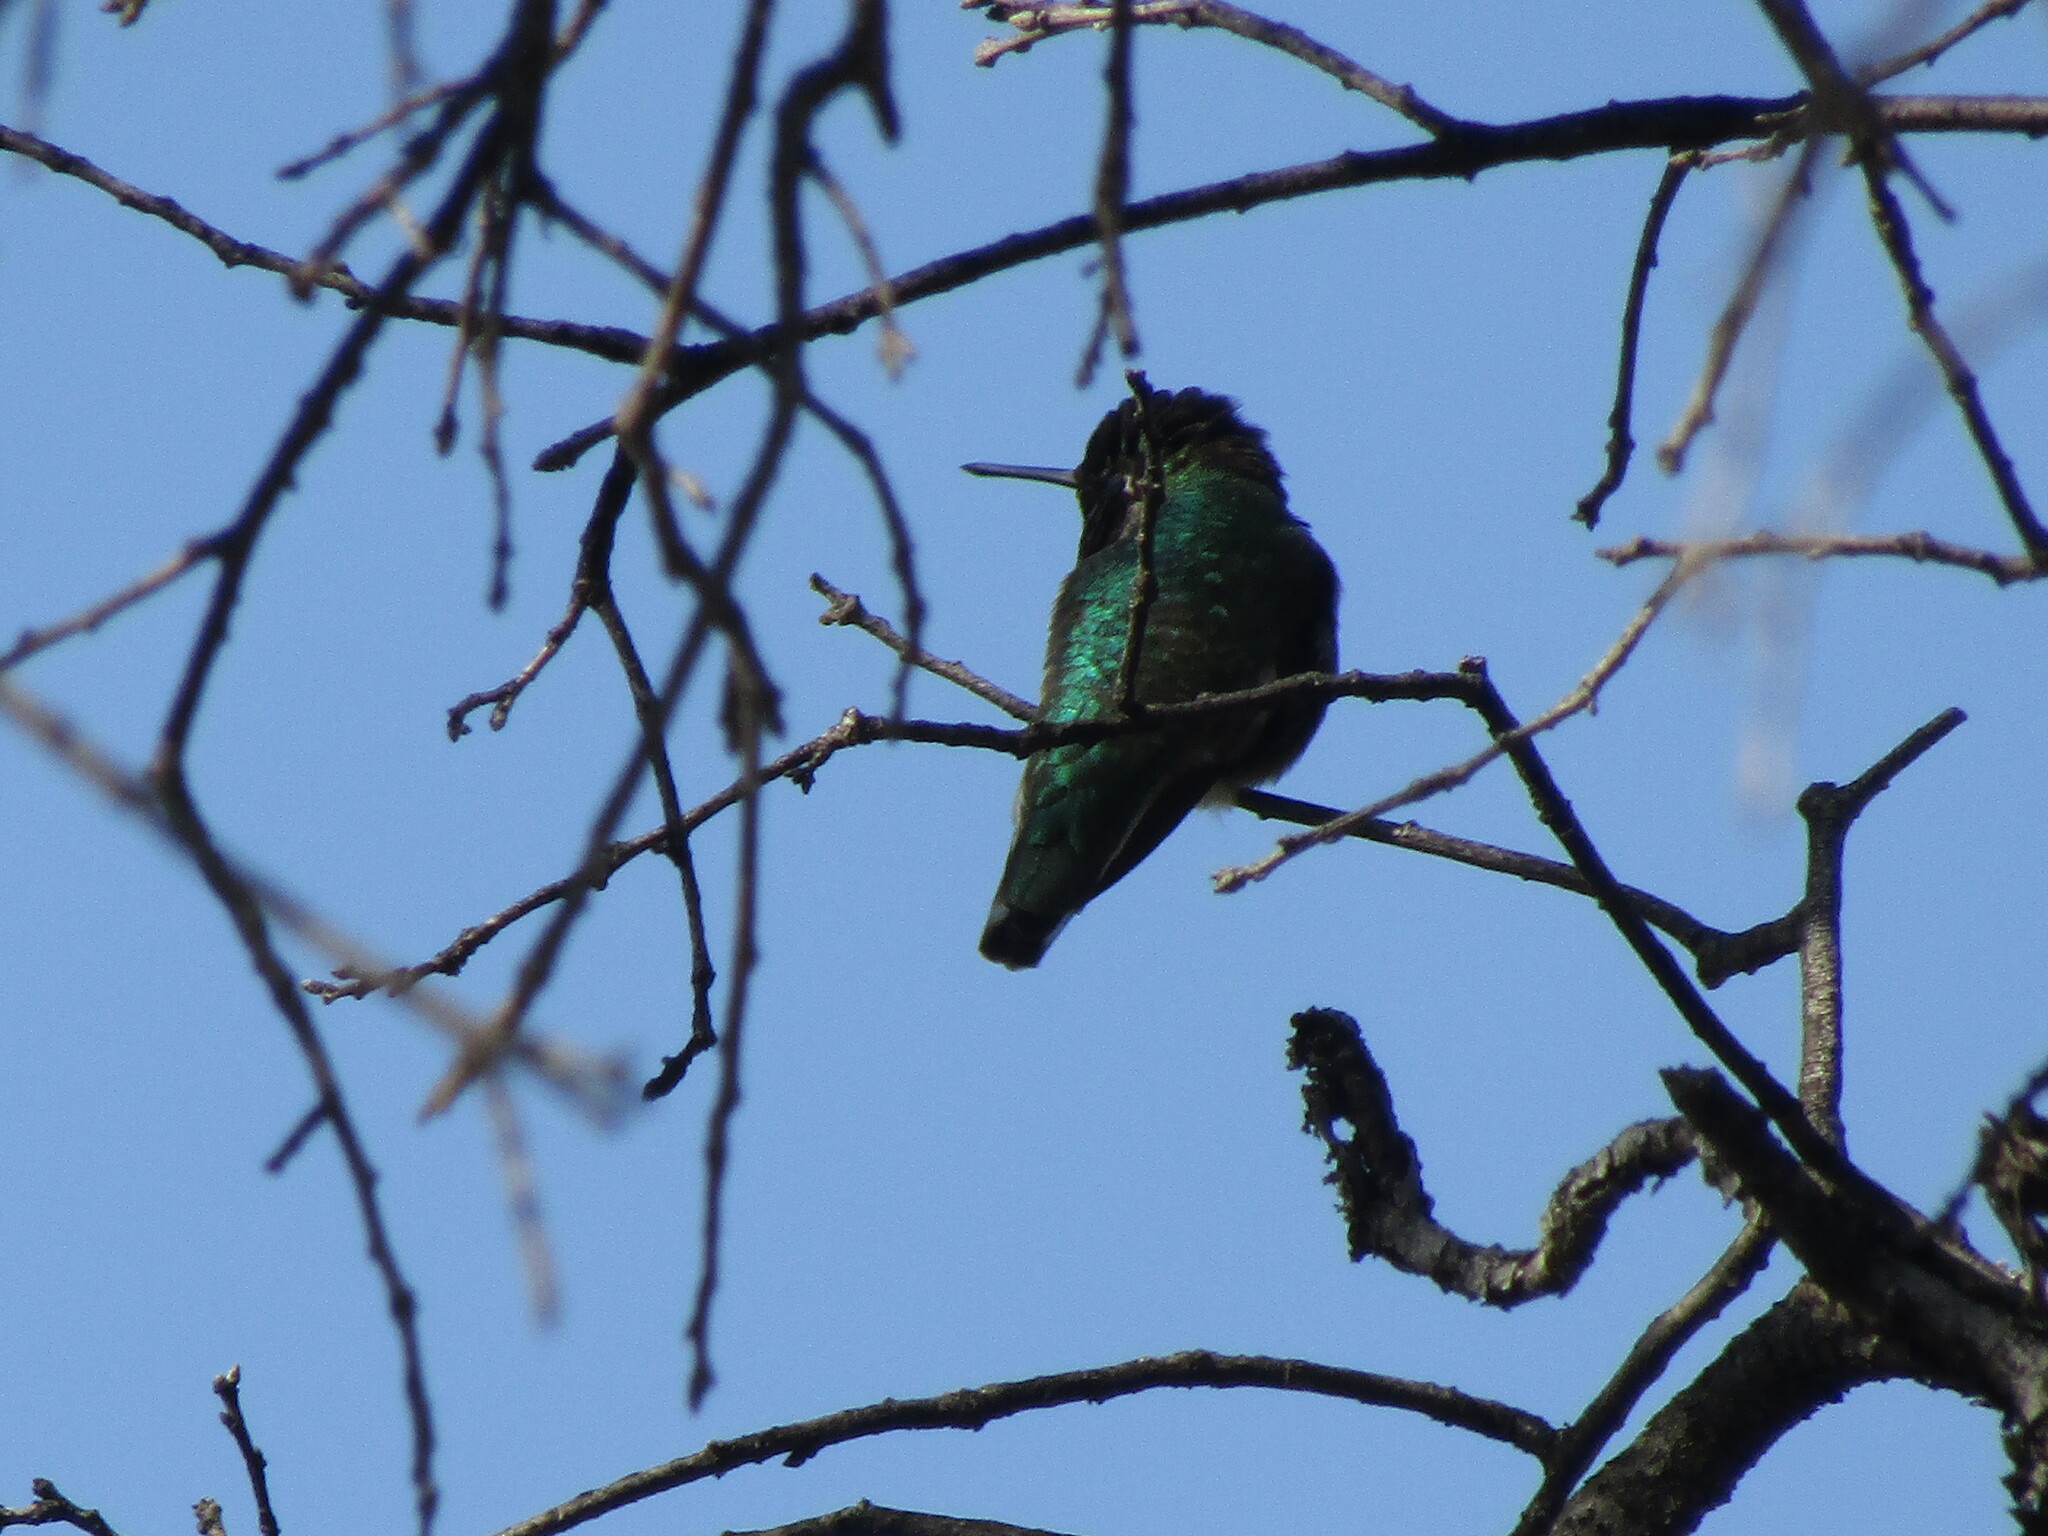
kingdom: Animalia
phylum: Chordata
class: Aves
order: Apodiformes
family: Trochilidae
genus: Calypte
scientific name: Calypte anna
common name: Anna's hummingbird
